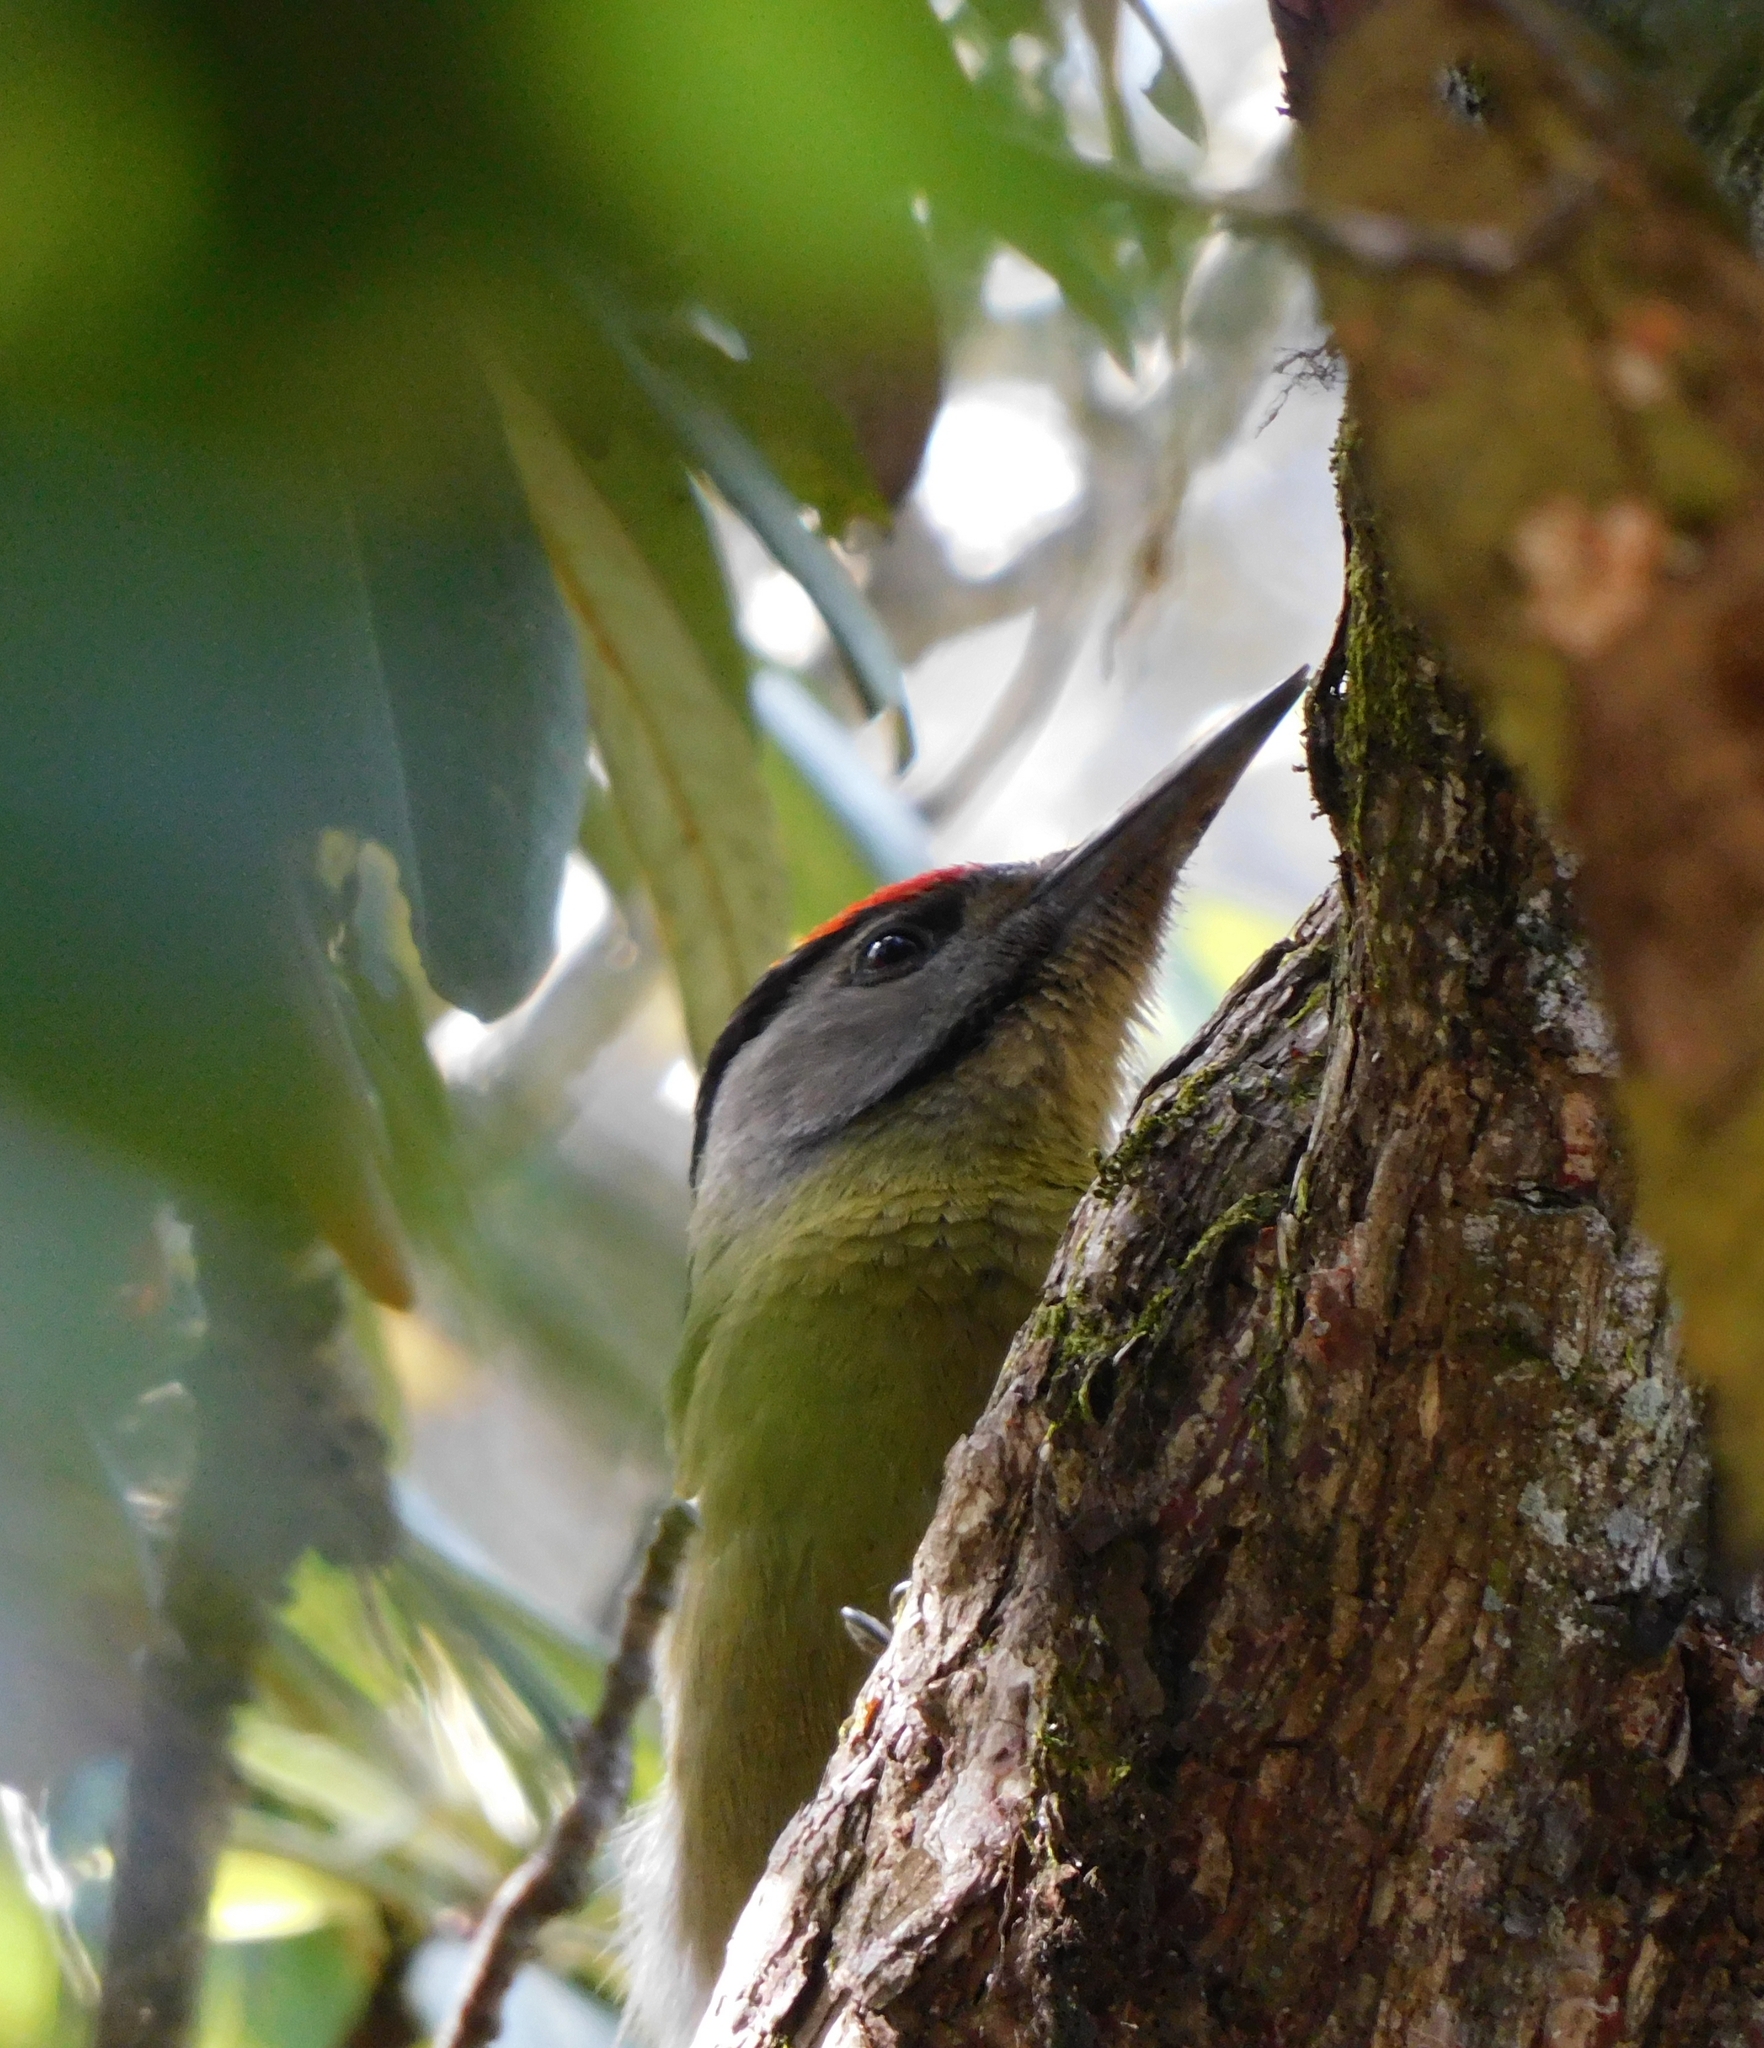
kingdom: Animalia
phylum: Chordata
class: Aves
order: Piciformes
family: Picidae
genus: Picus
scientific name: Picus canus
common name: Grey-headed woodpecker
